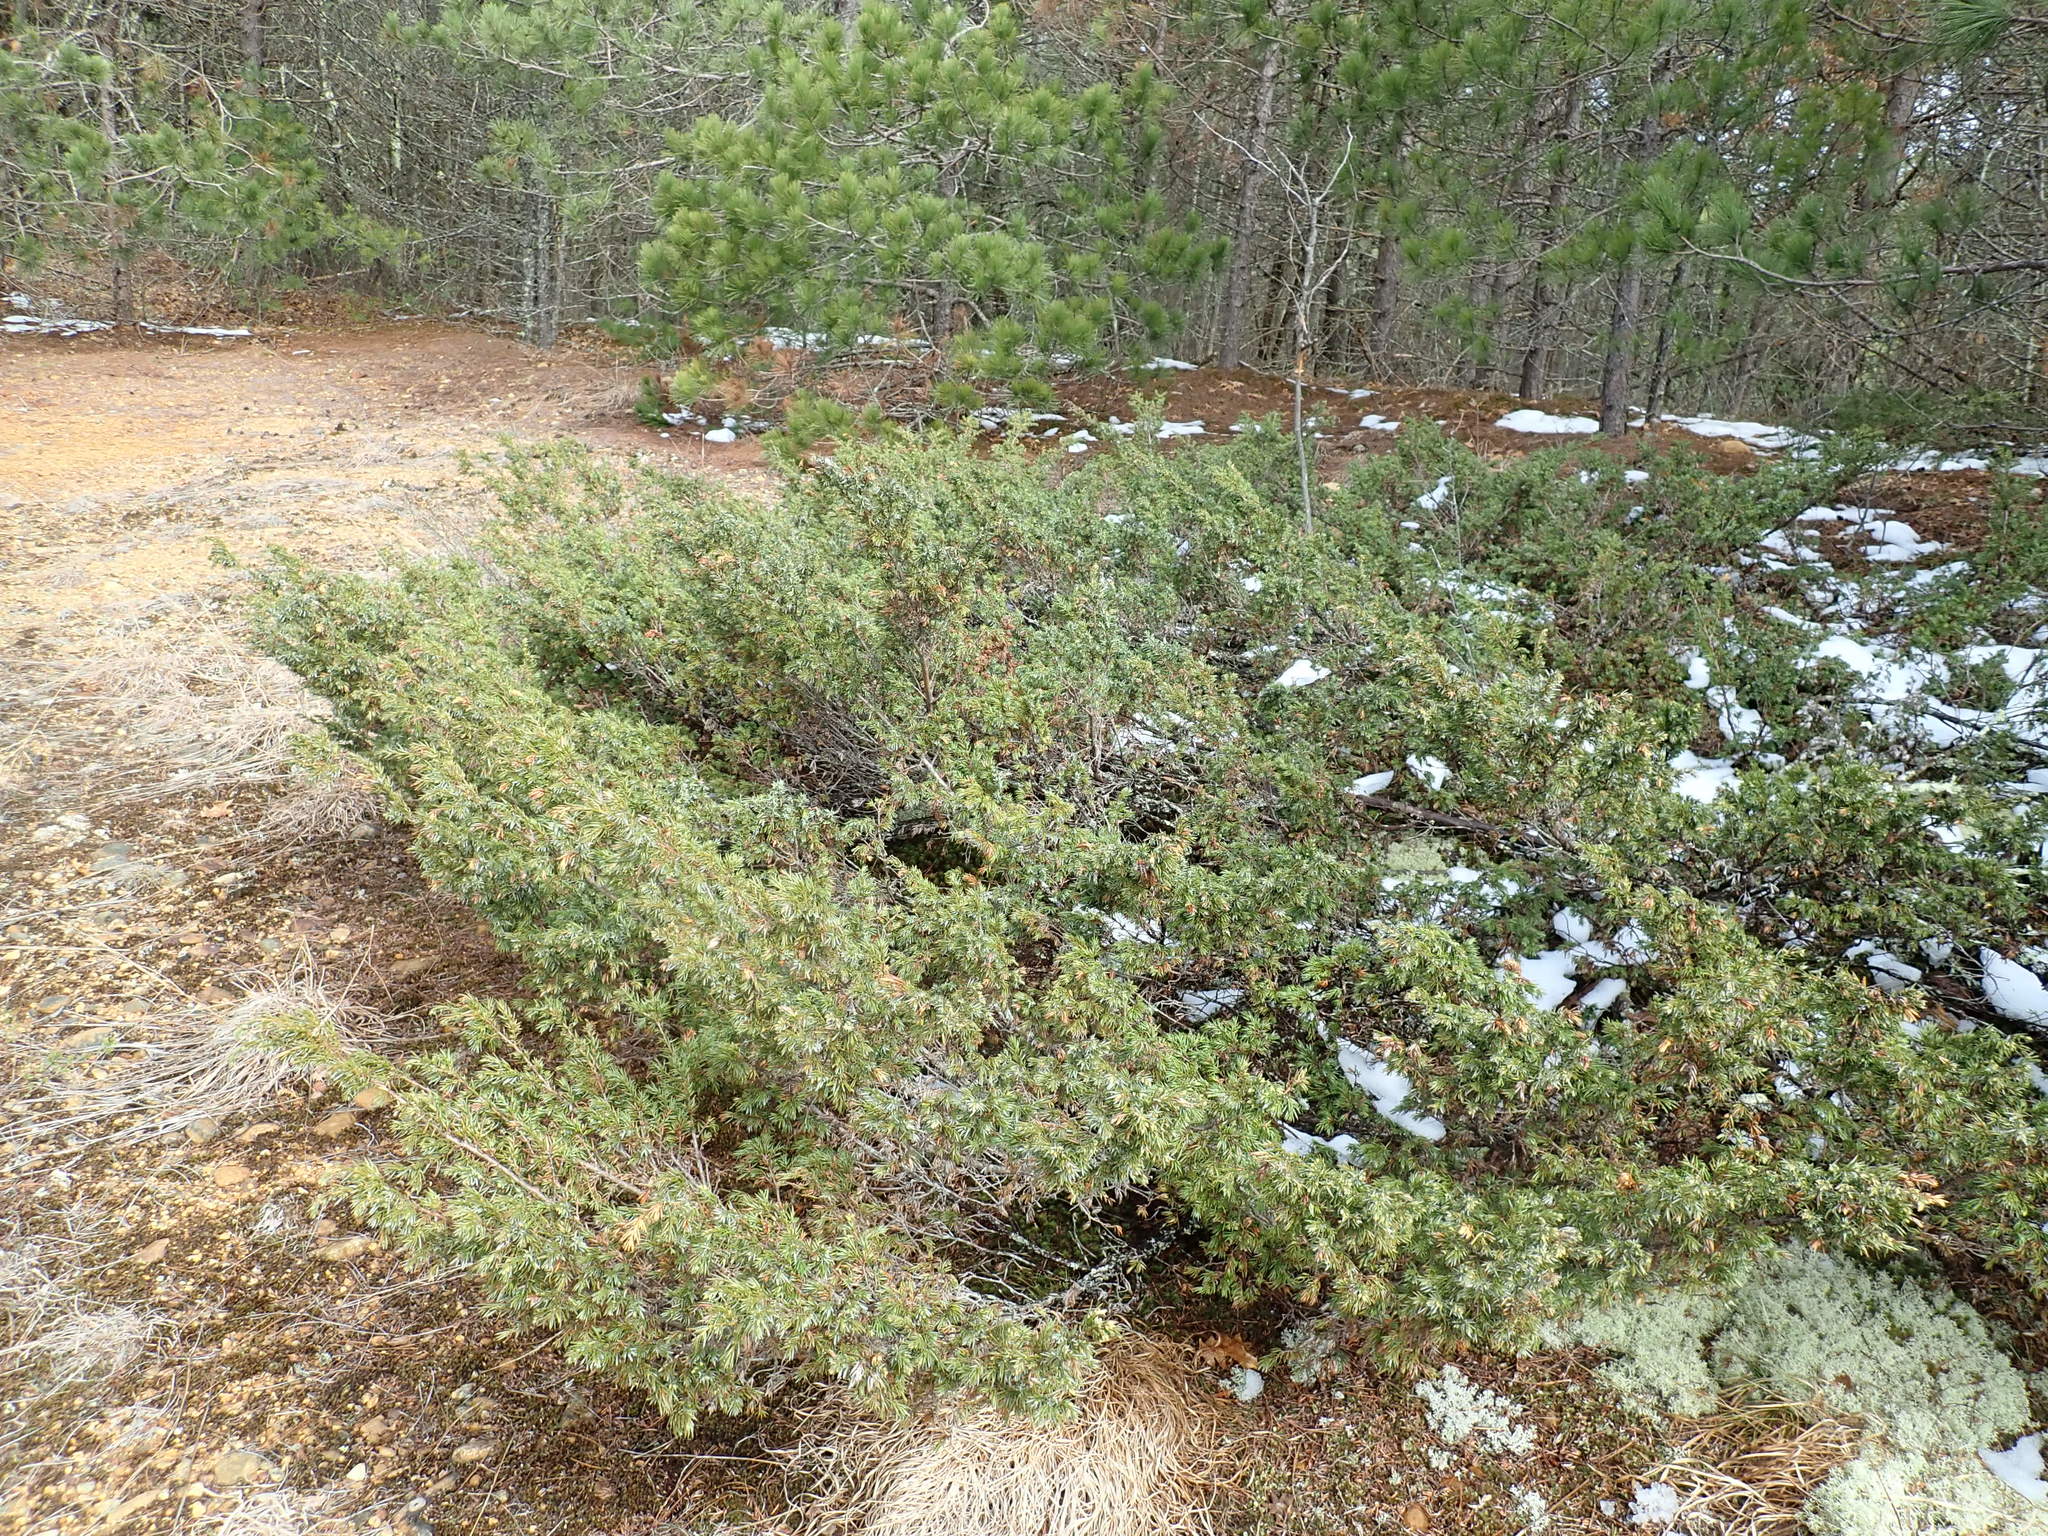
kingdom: Plantae
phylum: Tracheophyta
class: Pinopsida
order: Pinales
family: Cupressaceae
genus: Juniperus
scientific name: Juniperus communis
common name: Common juniper
